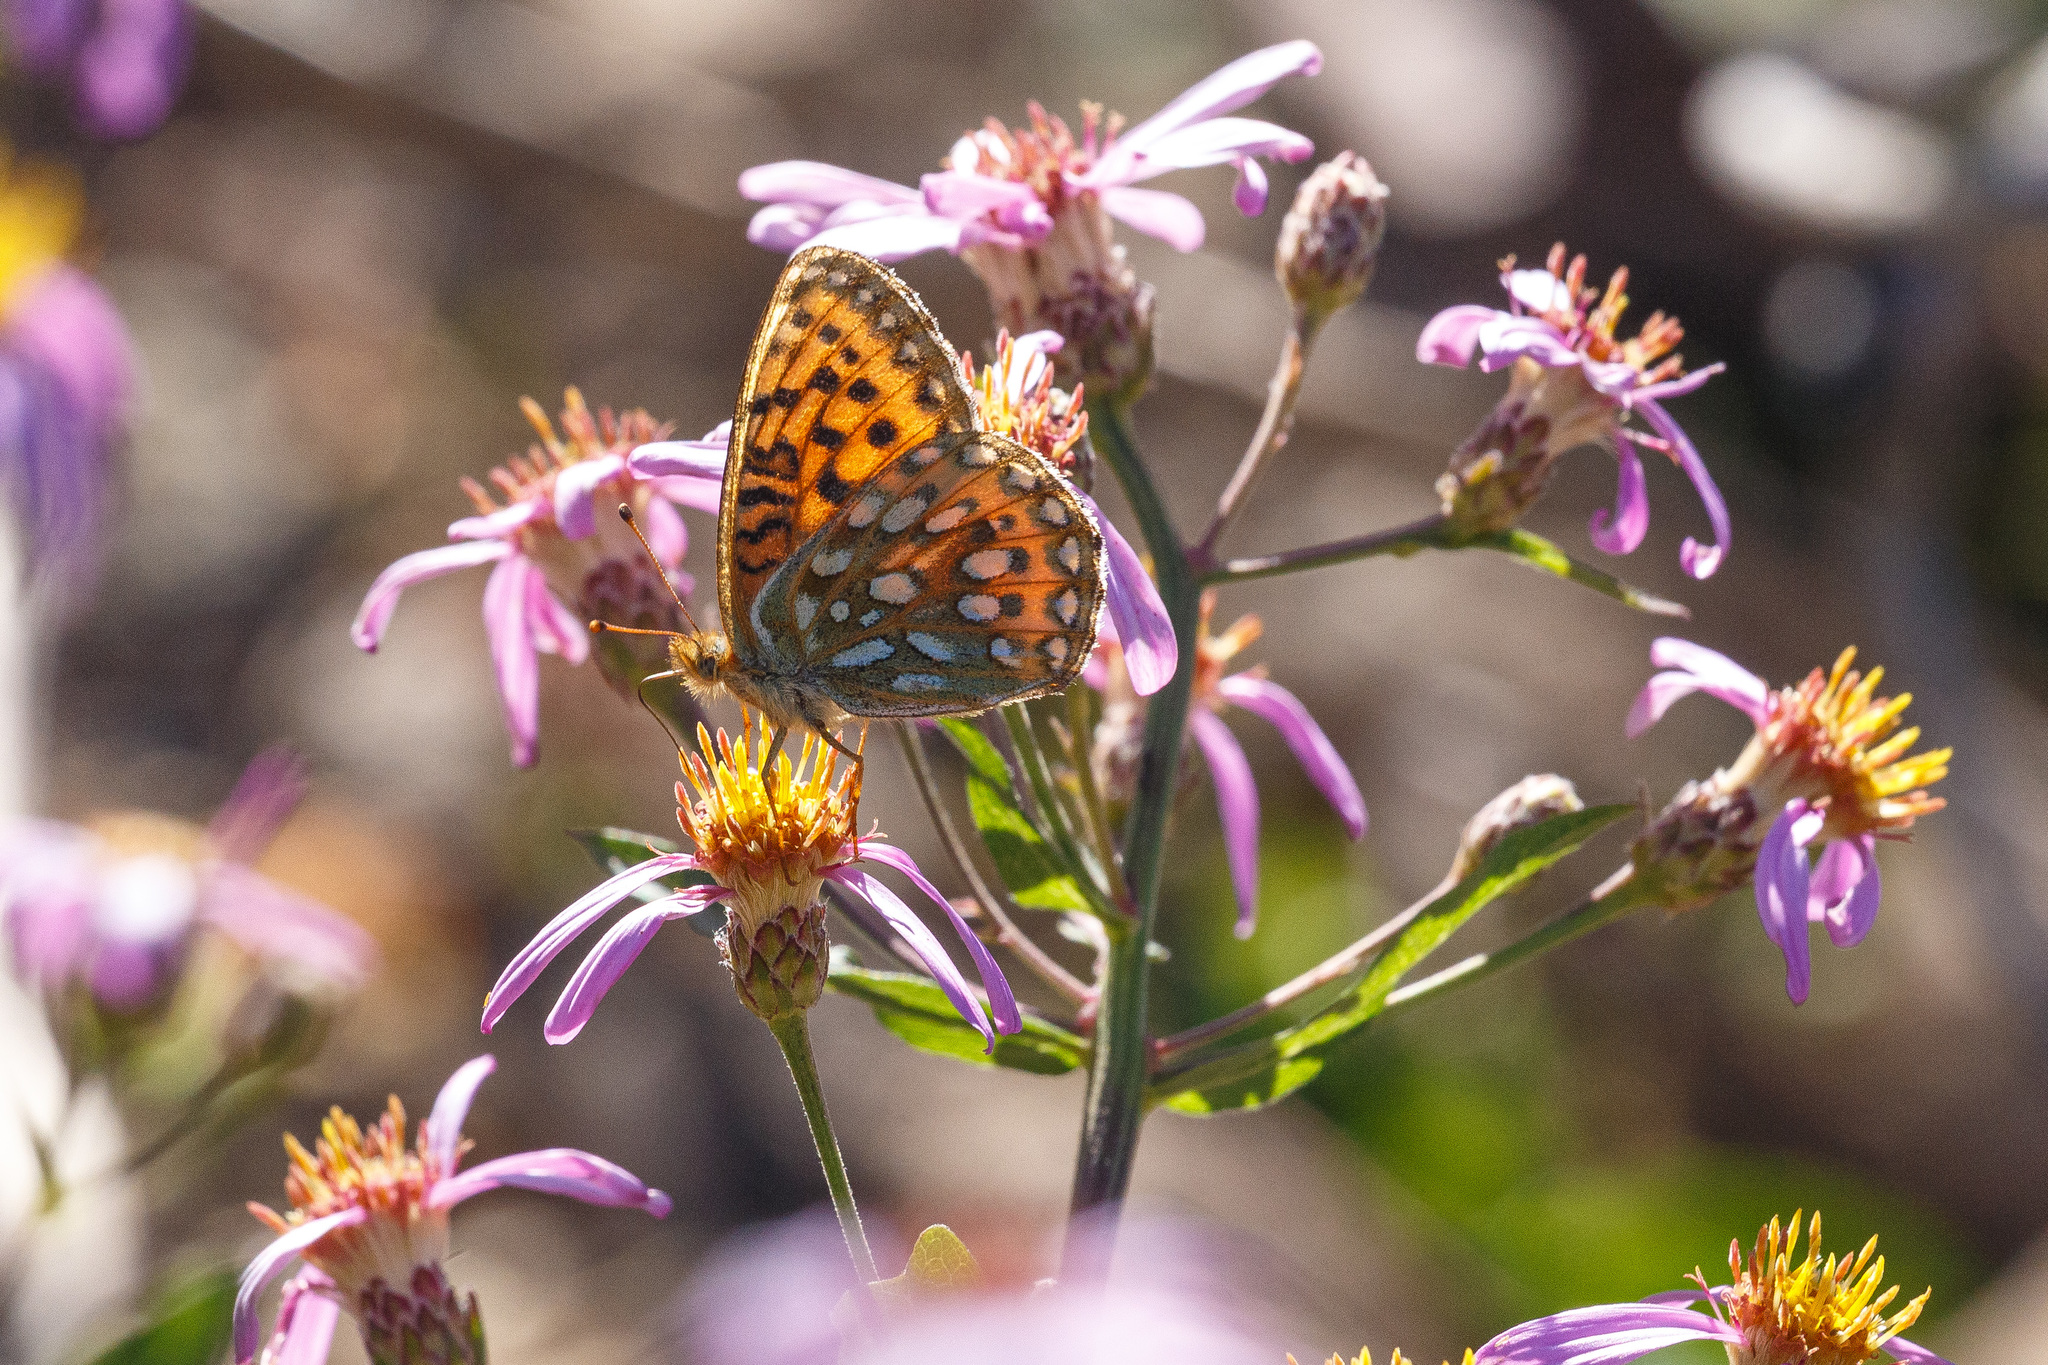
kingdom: Animalia
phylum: Arthropoda
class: Insecta
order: Lepidoptera
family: Nymphalidae
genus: Speyeria
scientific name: Speyeria mormonia
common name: Mormon fritillary
